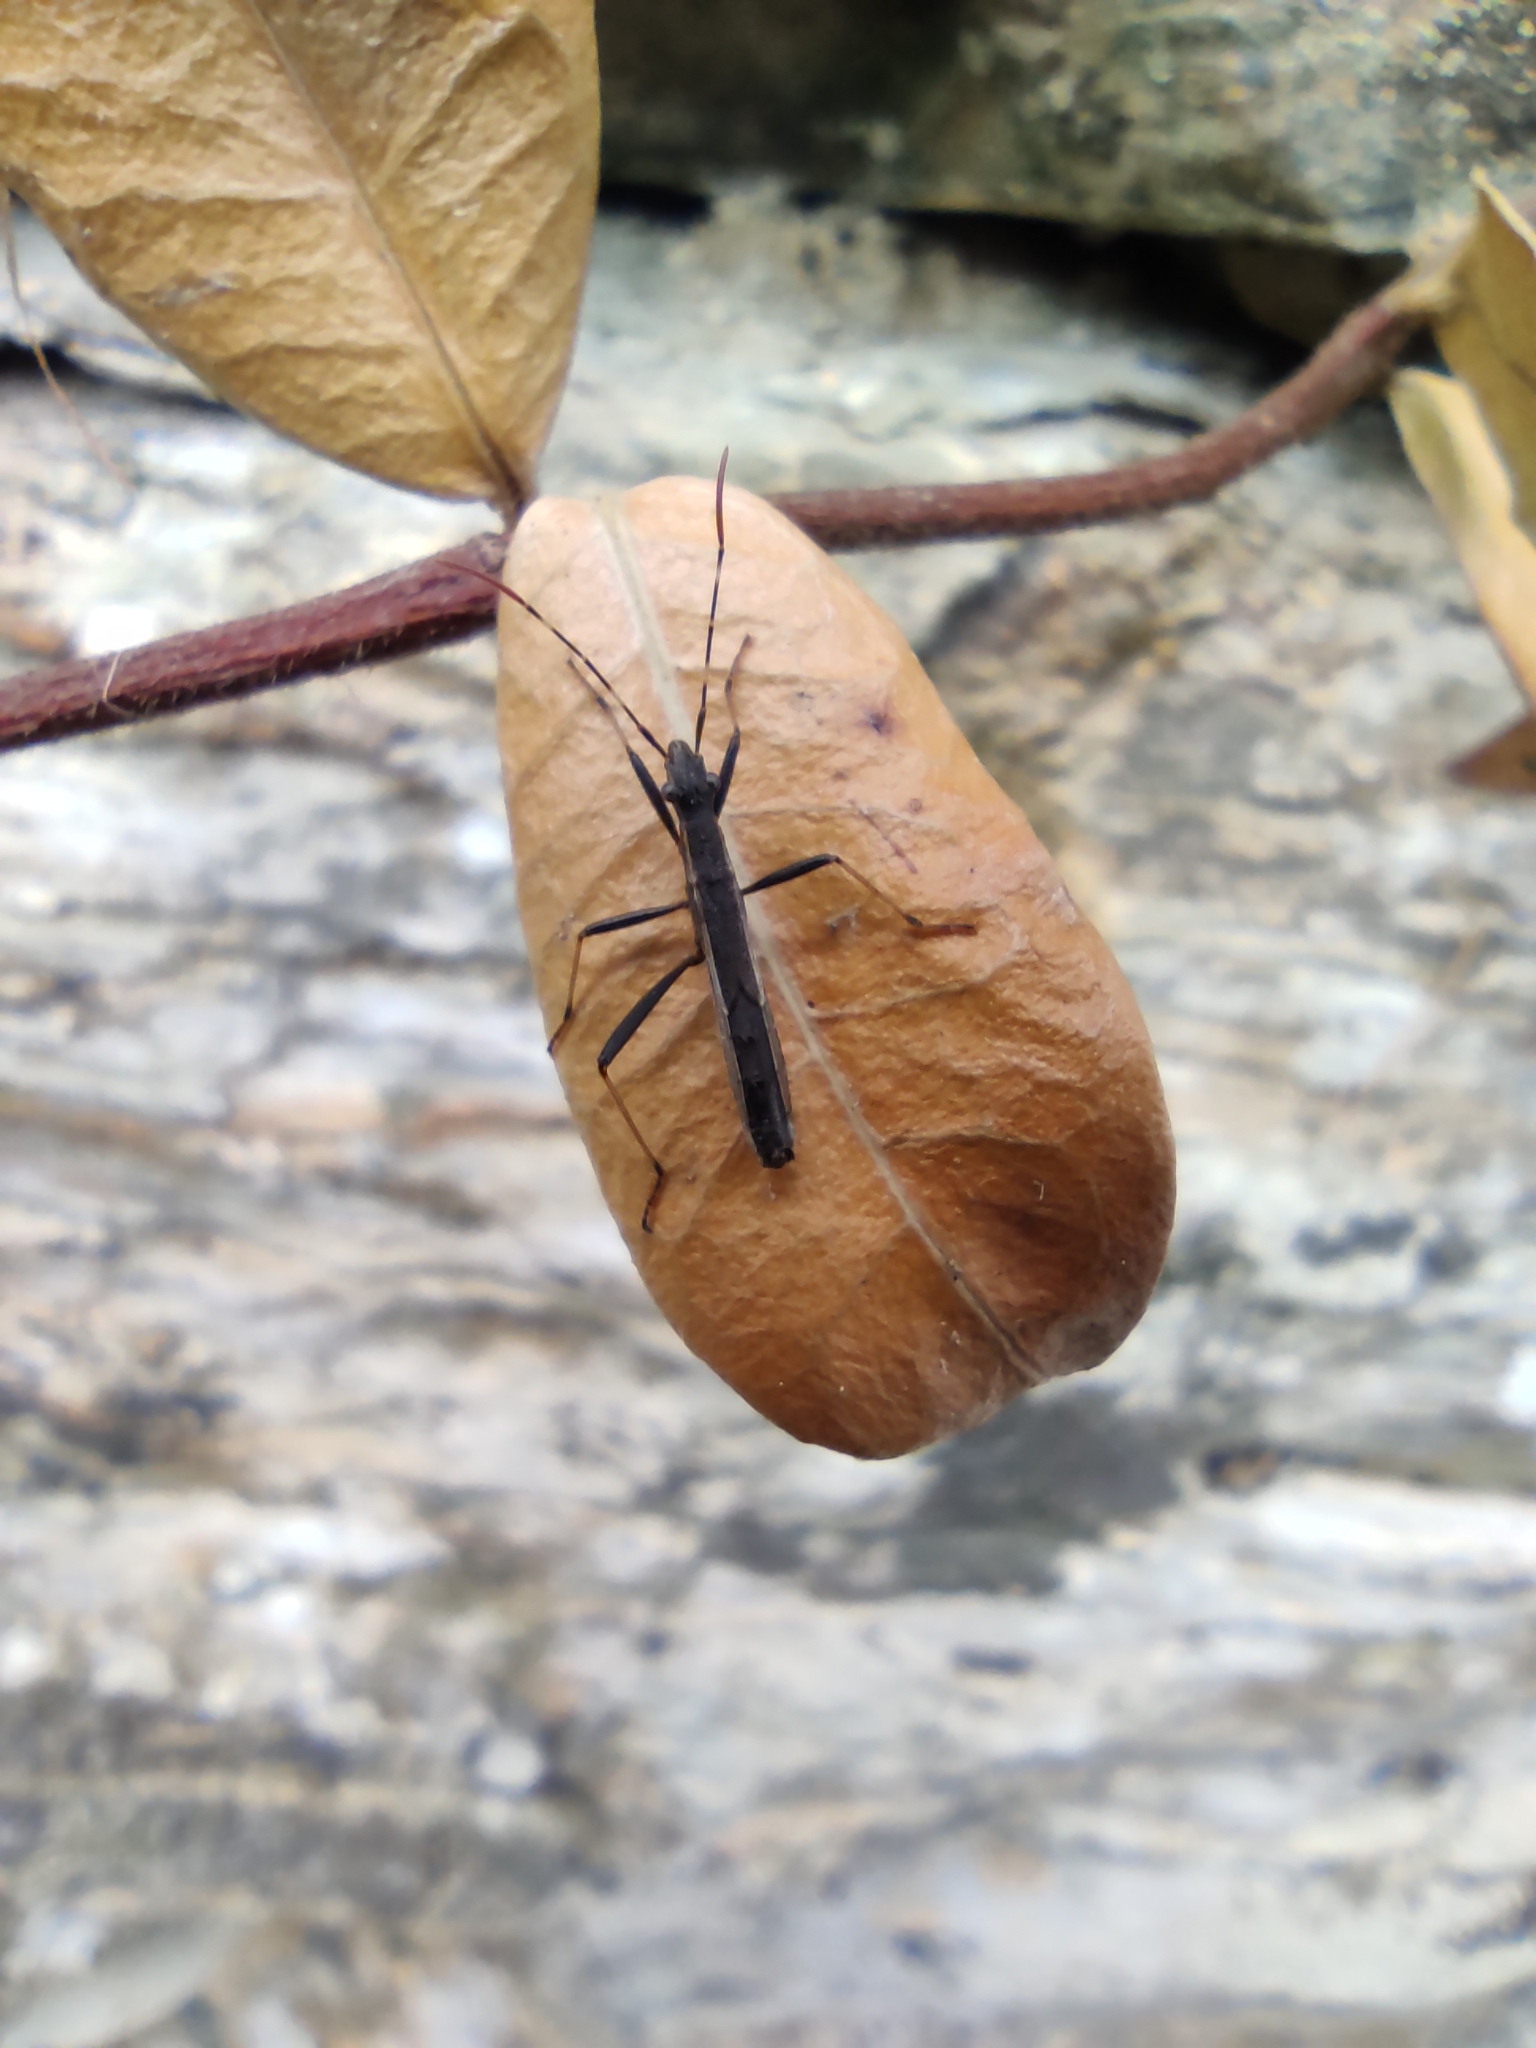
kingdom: Animalia
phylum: Arthropoda
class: Insecta
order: Hemiptera
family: Alydidae
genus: Micrelytra
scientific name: Micrelytra fossularum
